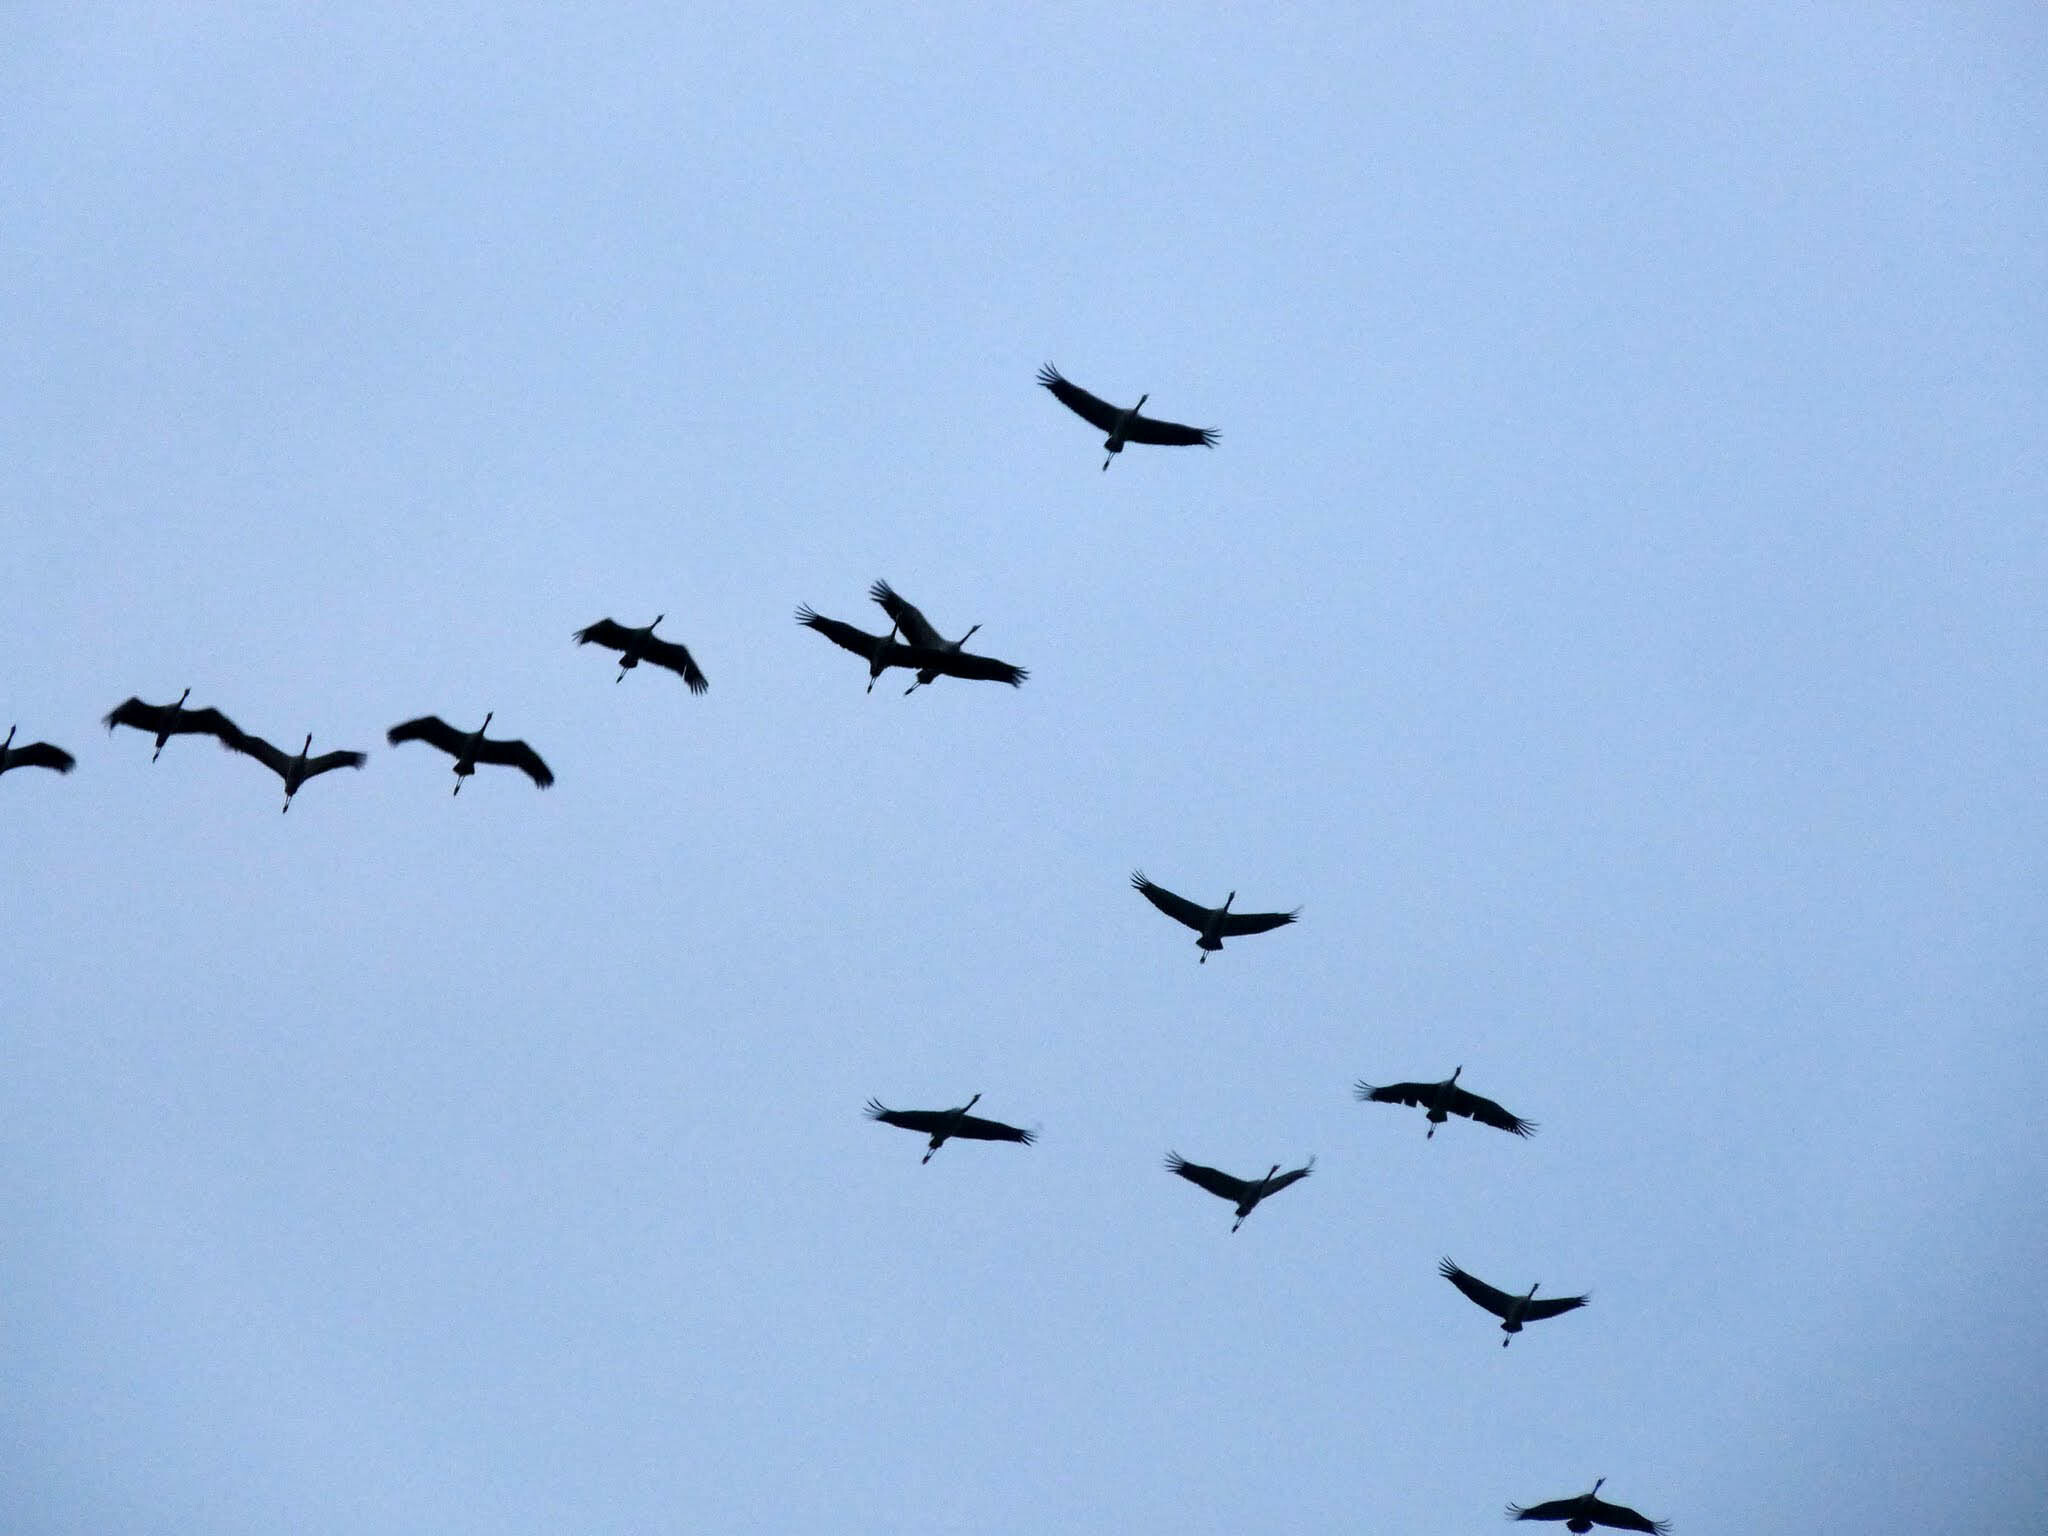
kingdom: Animalia
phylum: Chordata
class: Aves
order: Gruiformes
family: Gruidae
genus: Grus
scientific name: Grus grus
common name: Common crane
